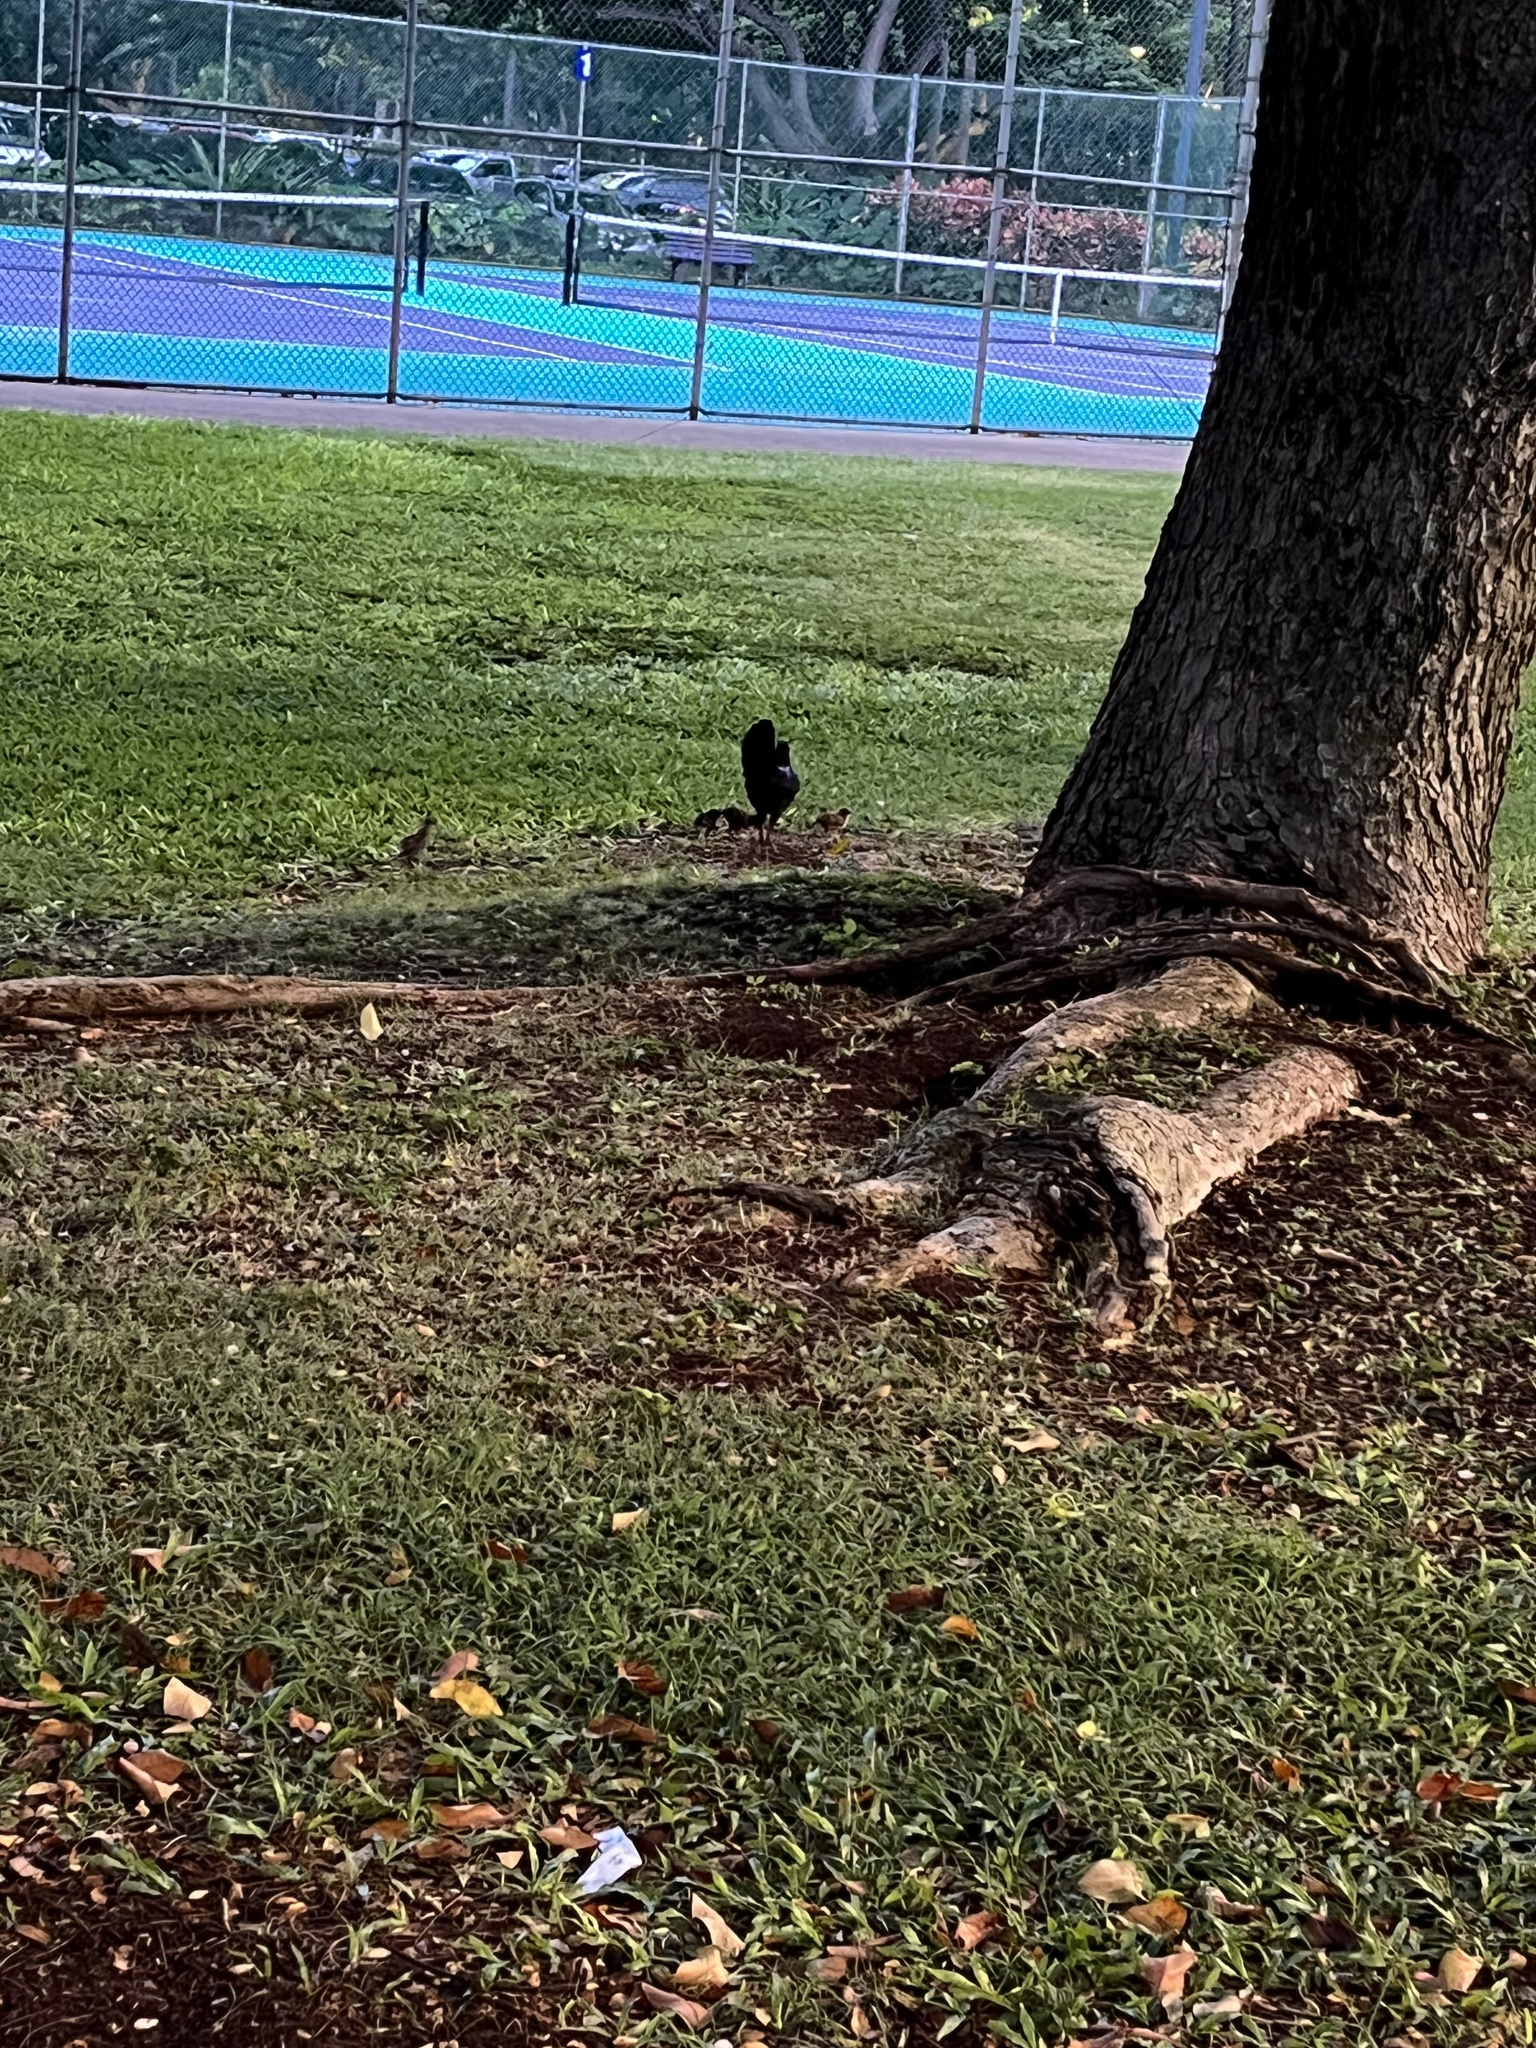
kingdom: Animalia
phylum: Chordata
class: Aves
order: Galliformes
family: Phasianidae
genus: Gallus
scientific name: Gallus gallus
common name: Red junglefowl
